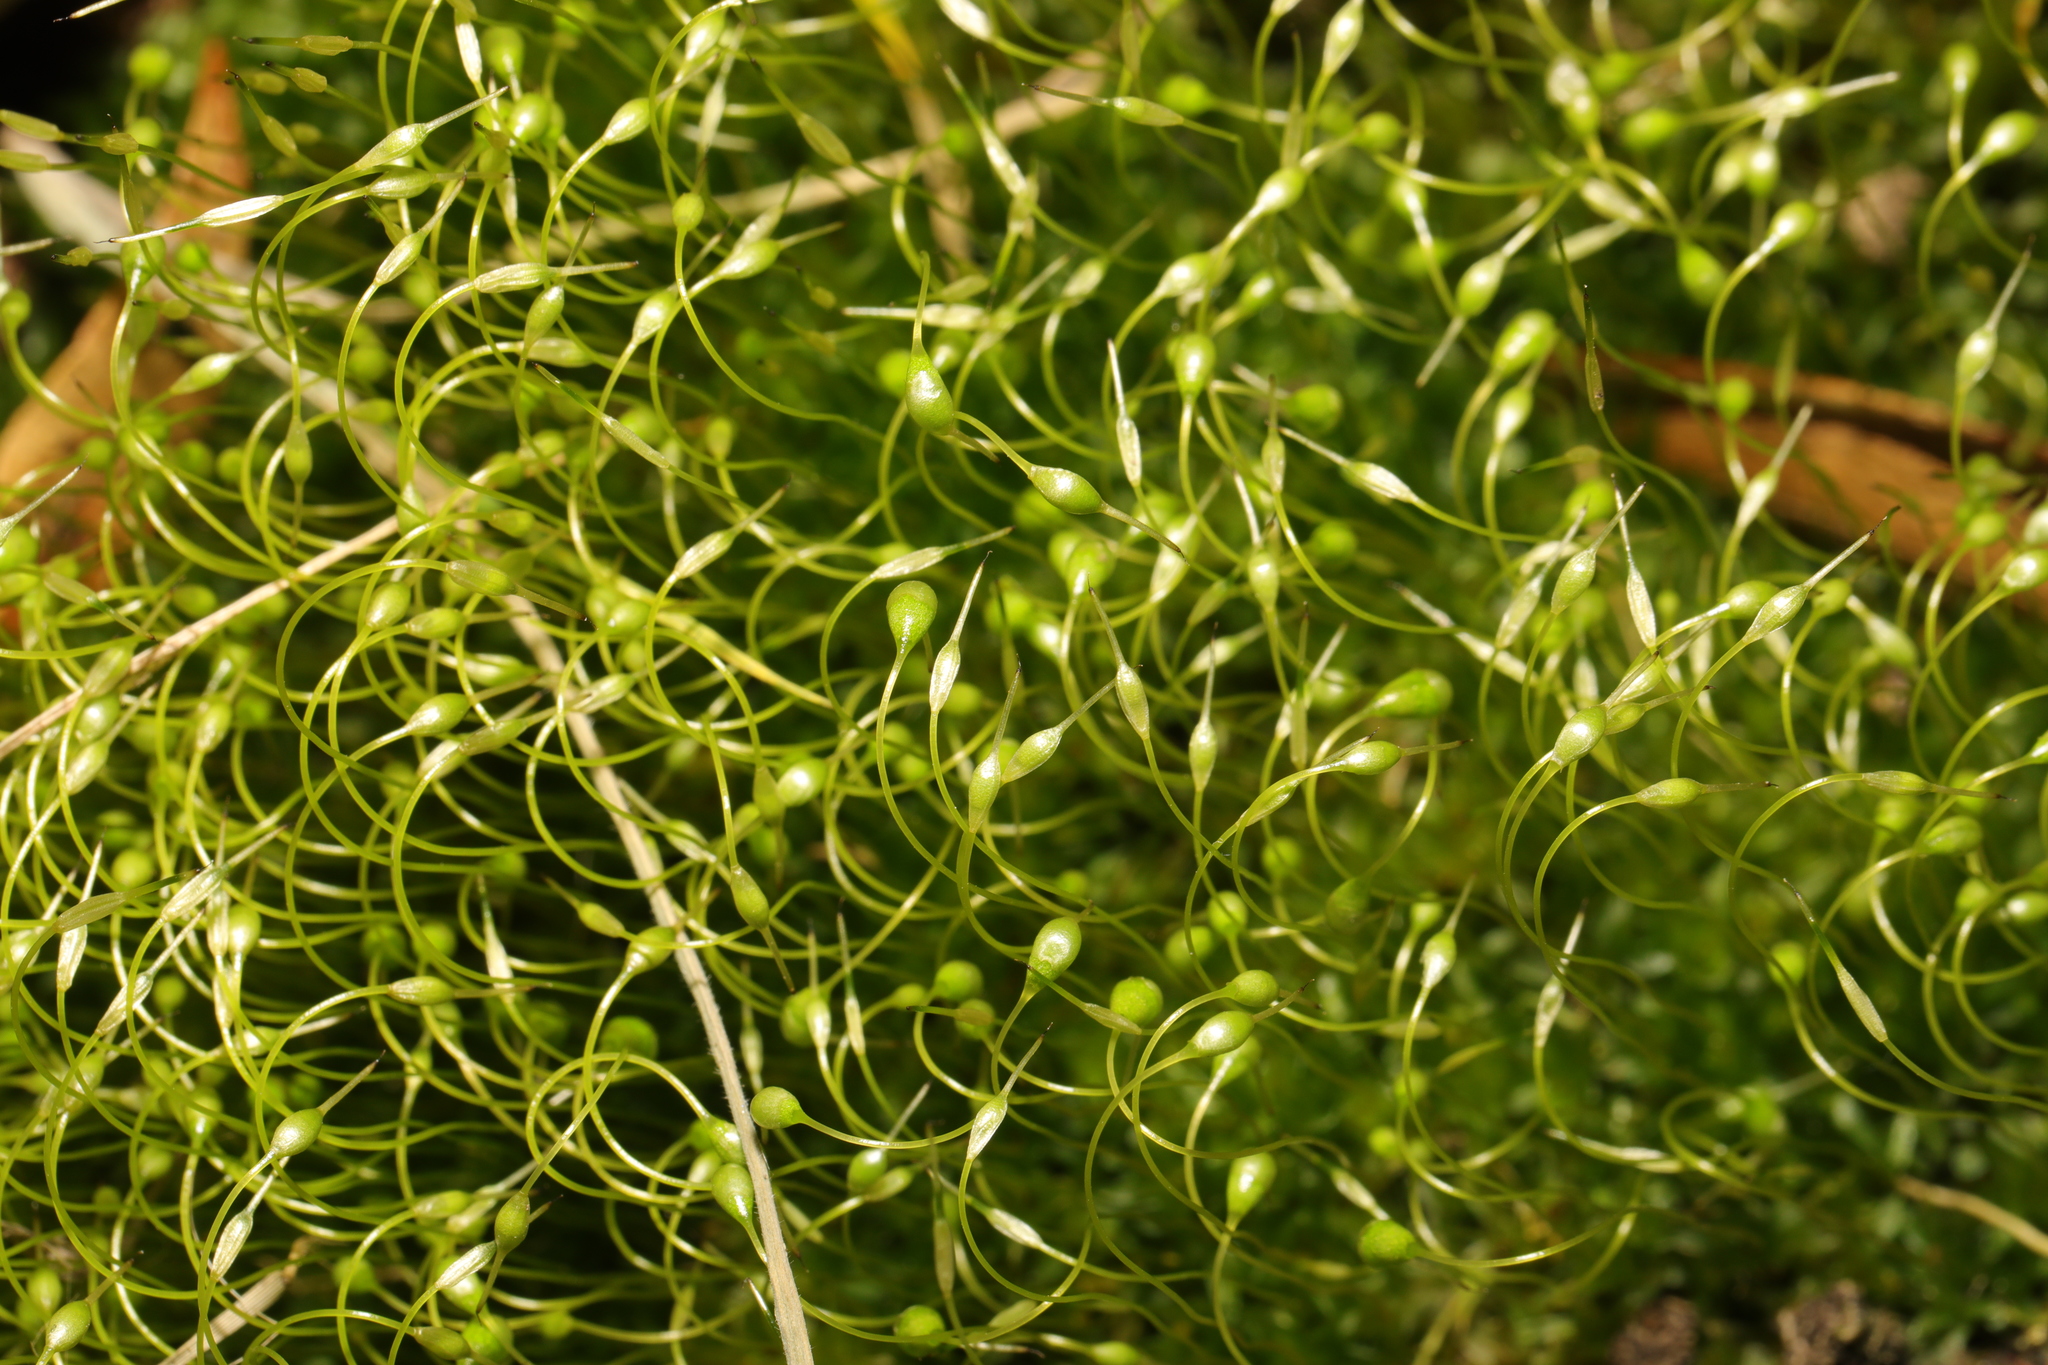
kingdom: Plantae
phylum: Bryophyta
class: Bryopsida
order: Funariales
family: Funariaceae
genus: Funaria
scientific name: Funaria hygrometrica
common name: Common cord moss
